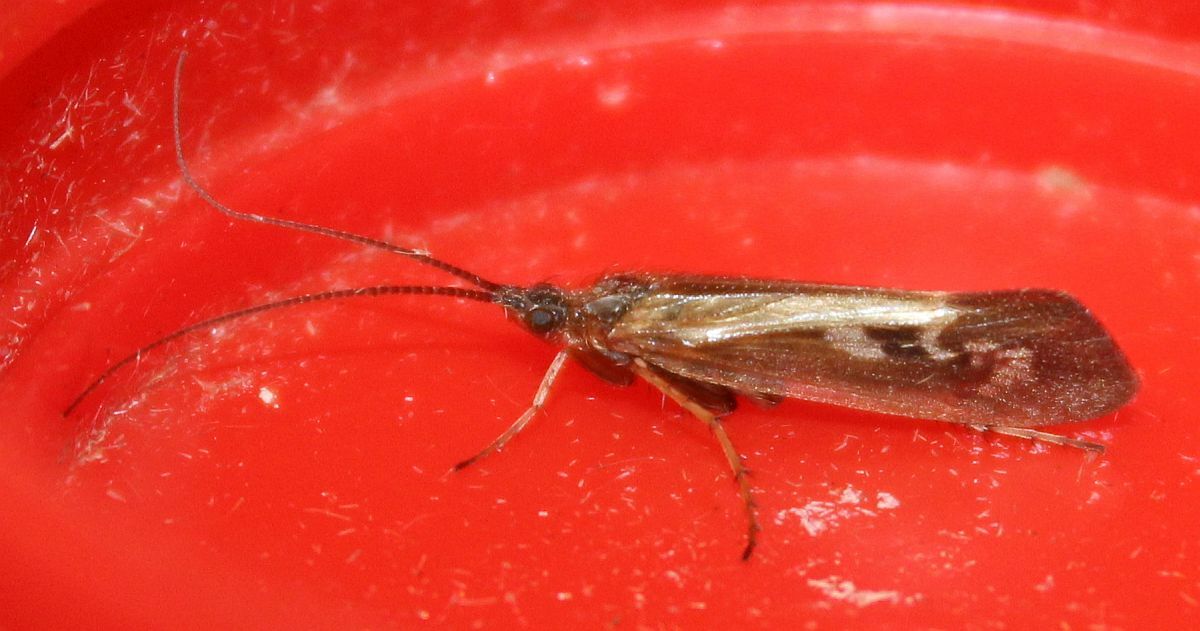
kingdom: Animalia
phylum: Arthropoda
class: Insecta
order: Trichoptera
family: Limnephilidae
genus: Limnephilus
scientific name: Limnephilus auricula
